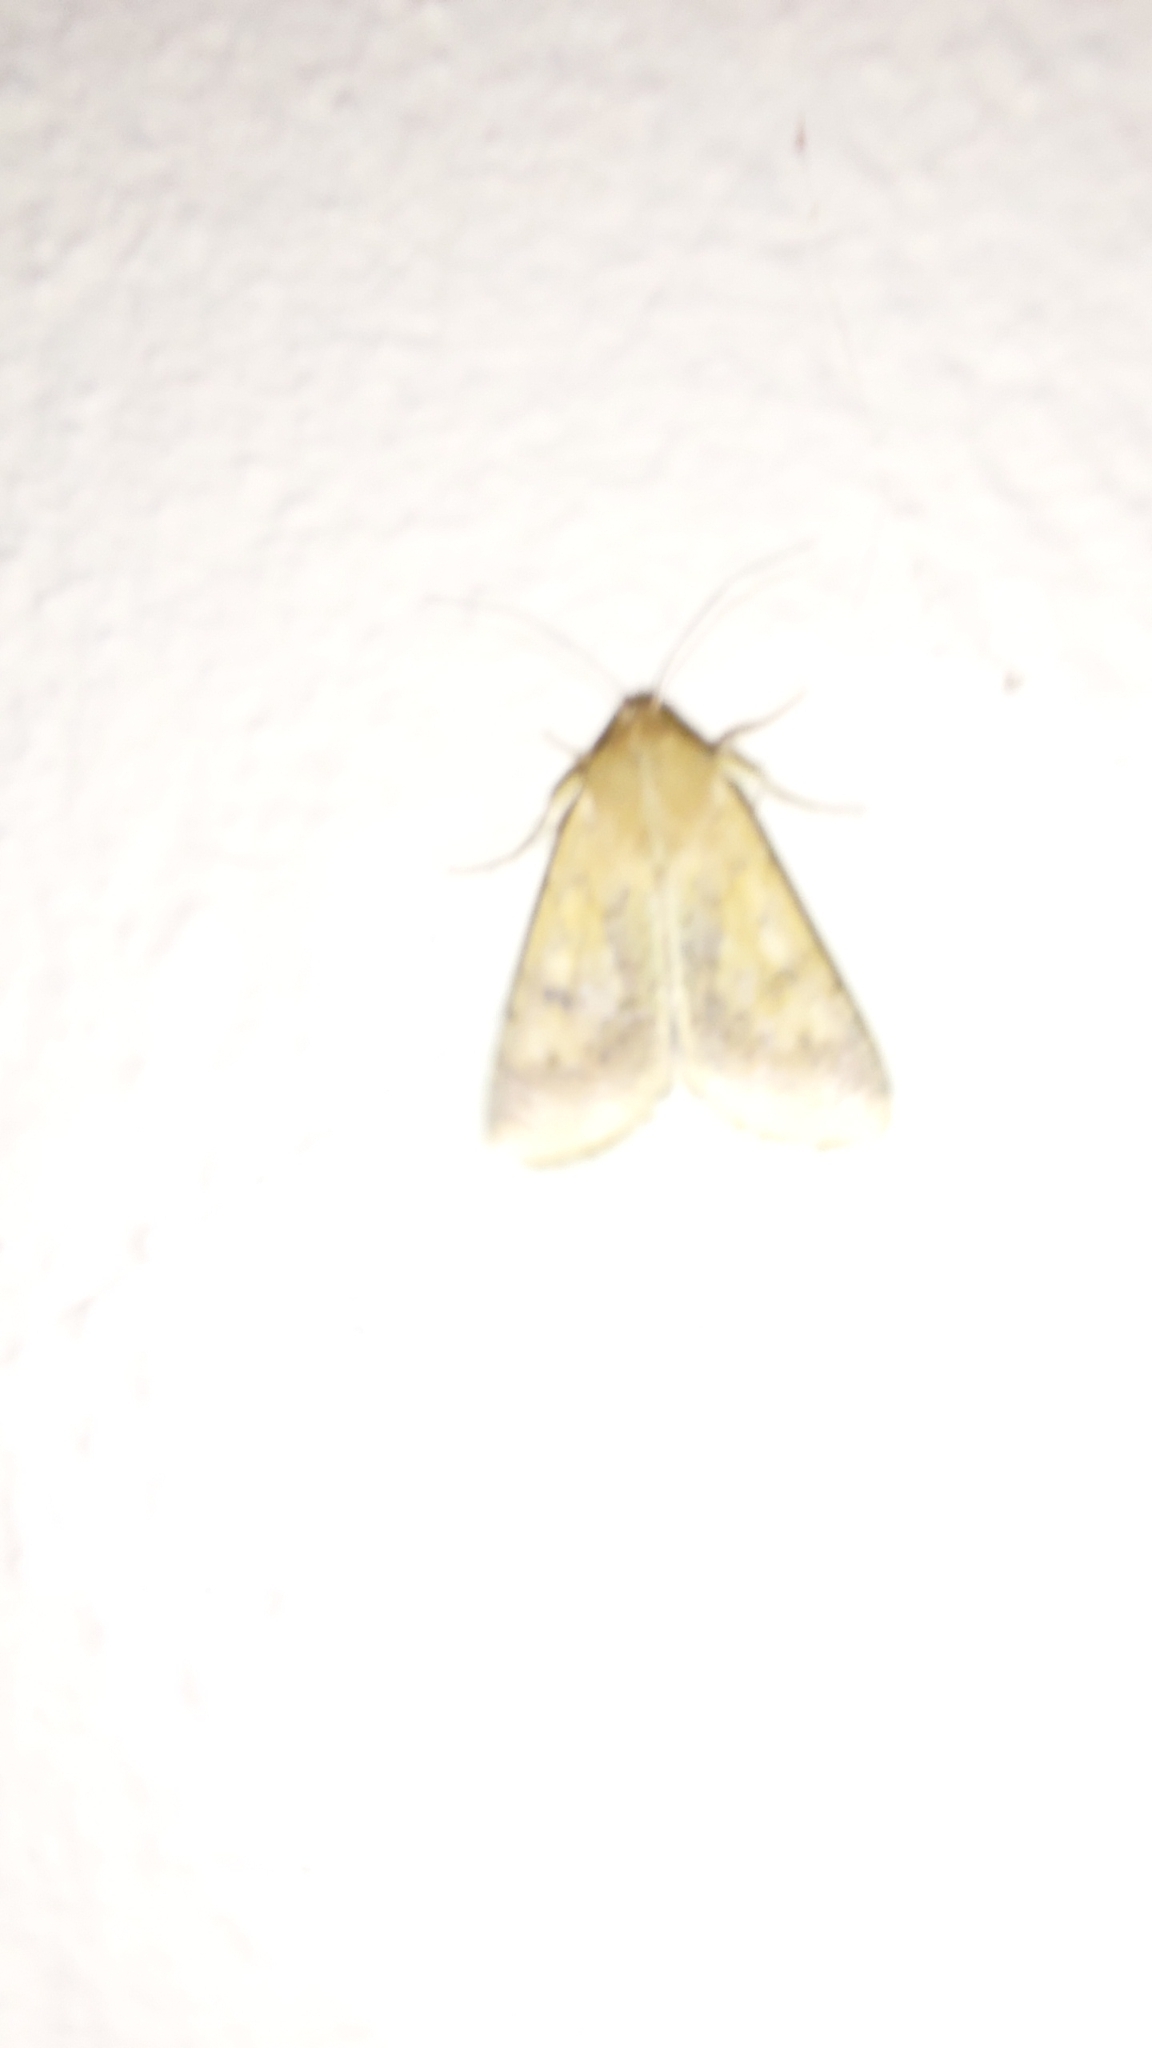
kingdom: Animalia
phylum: Arthropoda
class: Insecta
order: Lepidoptera
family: Noctuidae
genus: Helicoverpa
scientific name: Helicoverpa armigera
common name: Cotton bollworm
